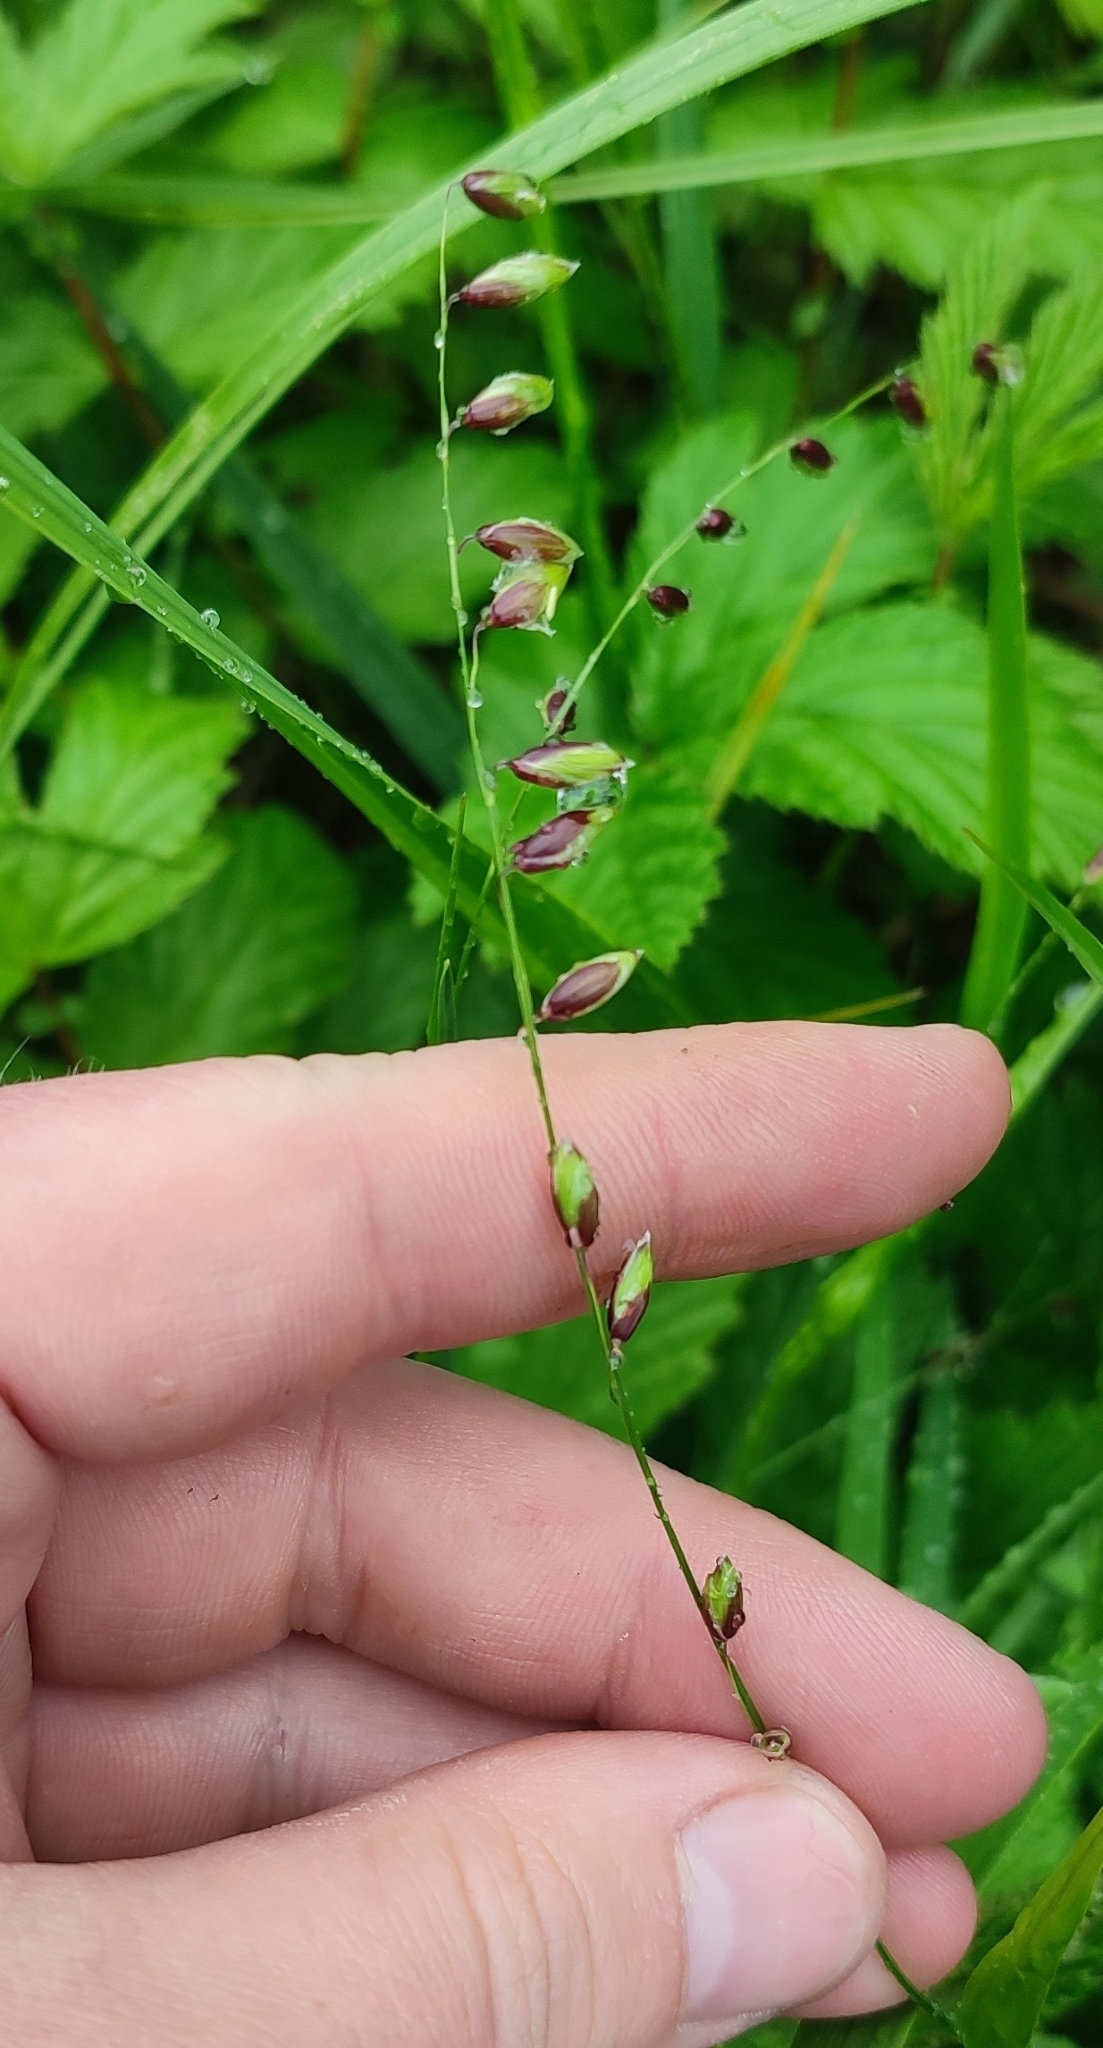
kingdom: Plantae
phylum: Tracheophyta
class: Liliopsida
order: Poales
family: Poaceae
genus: Melica
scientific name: Melica nutans
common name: Mountain melick
